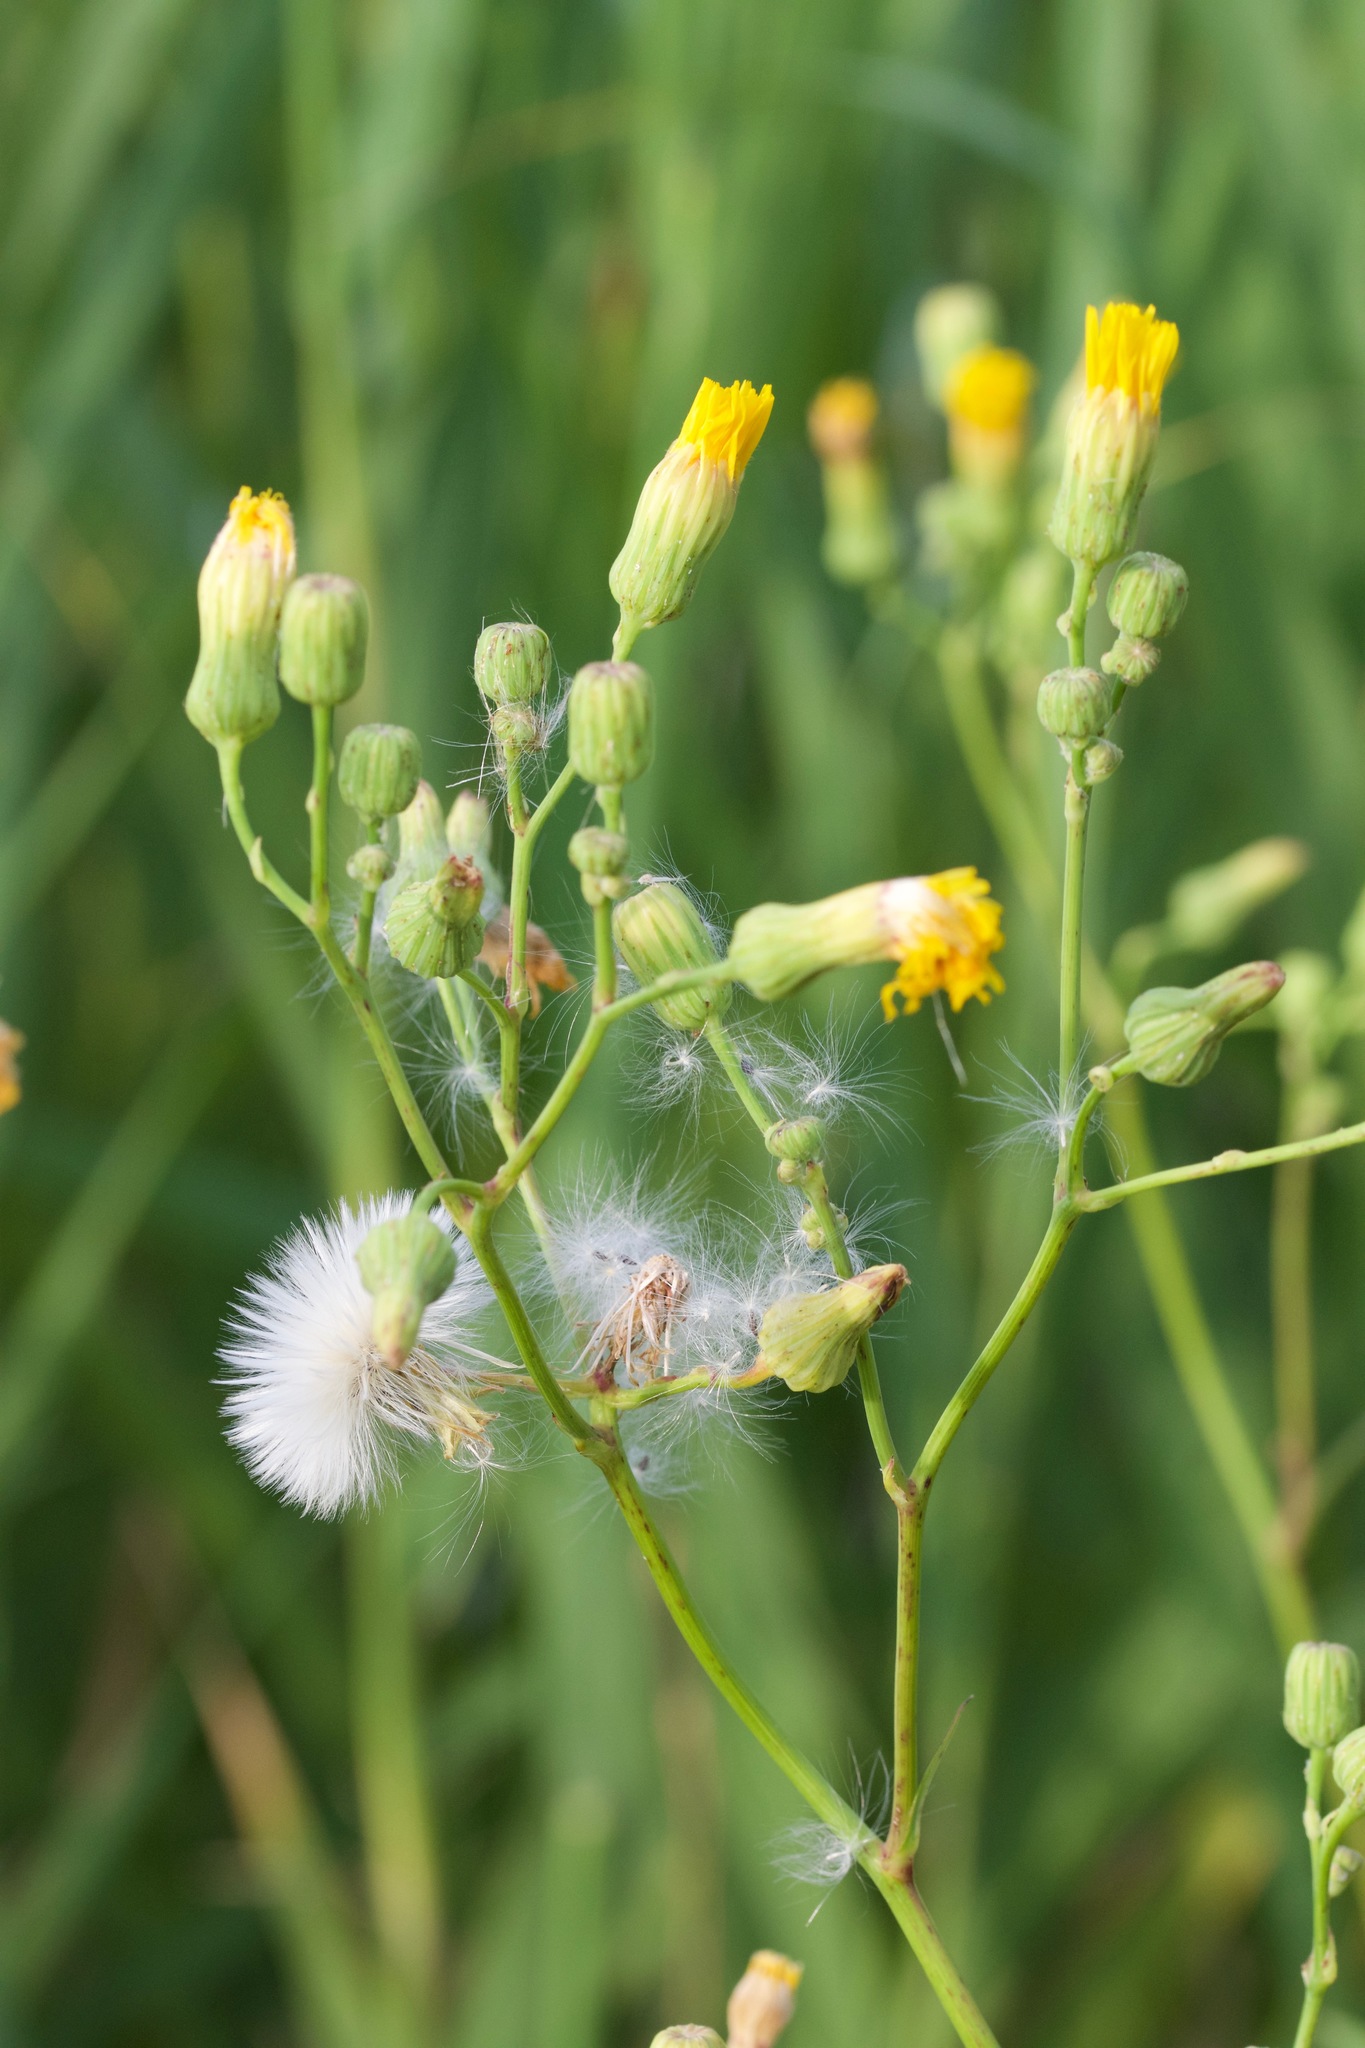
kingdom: Plantae
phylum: Tracheophyta
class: Magnoliopsida
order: Asterales
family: Asteraceae
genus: Sonchus
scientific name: Sonchus arvensis
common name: Perennial sow-thistle
